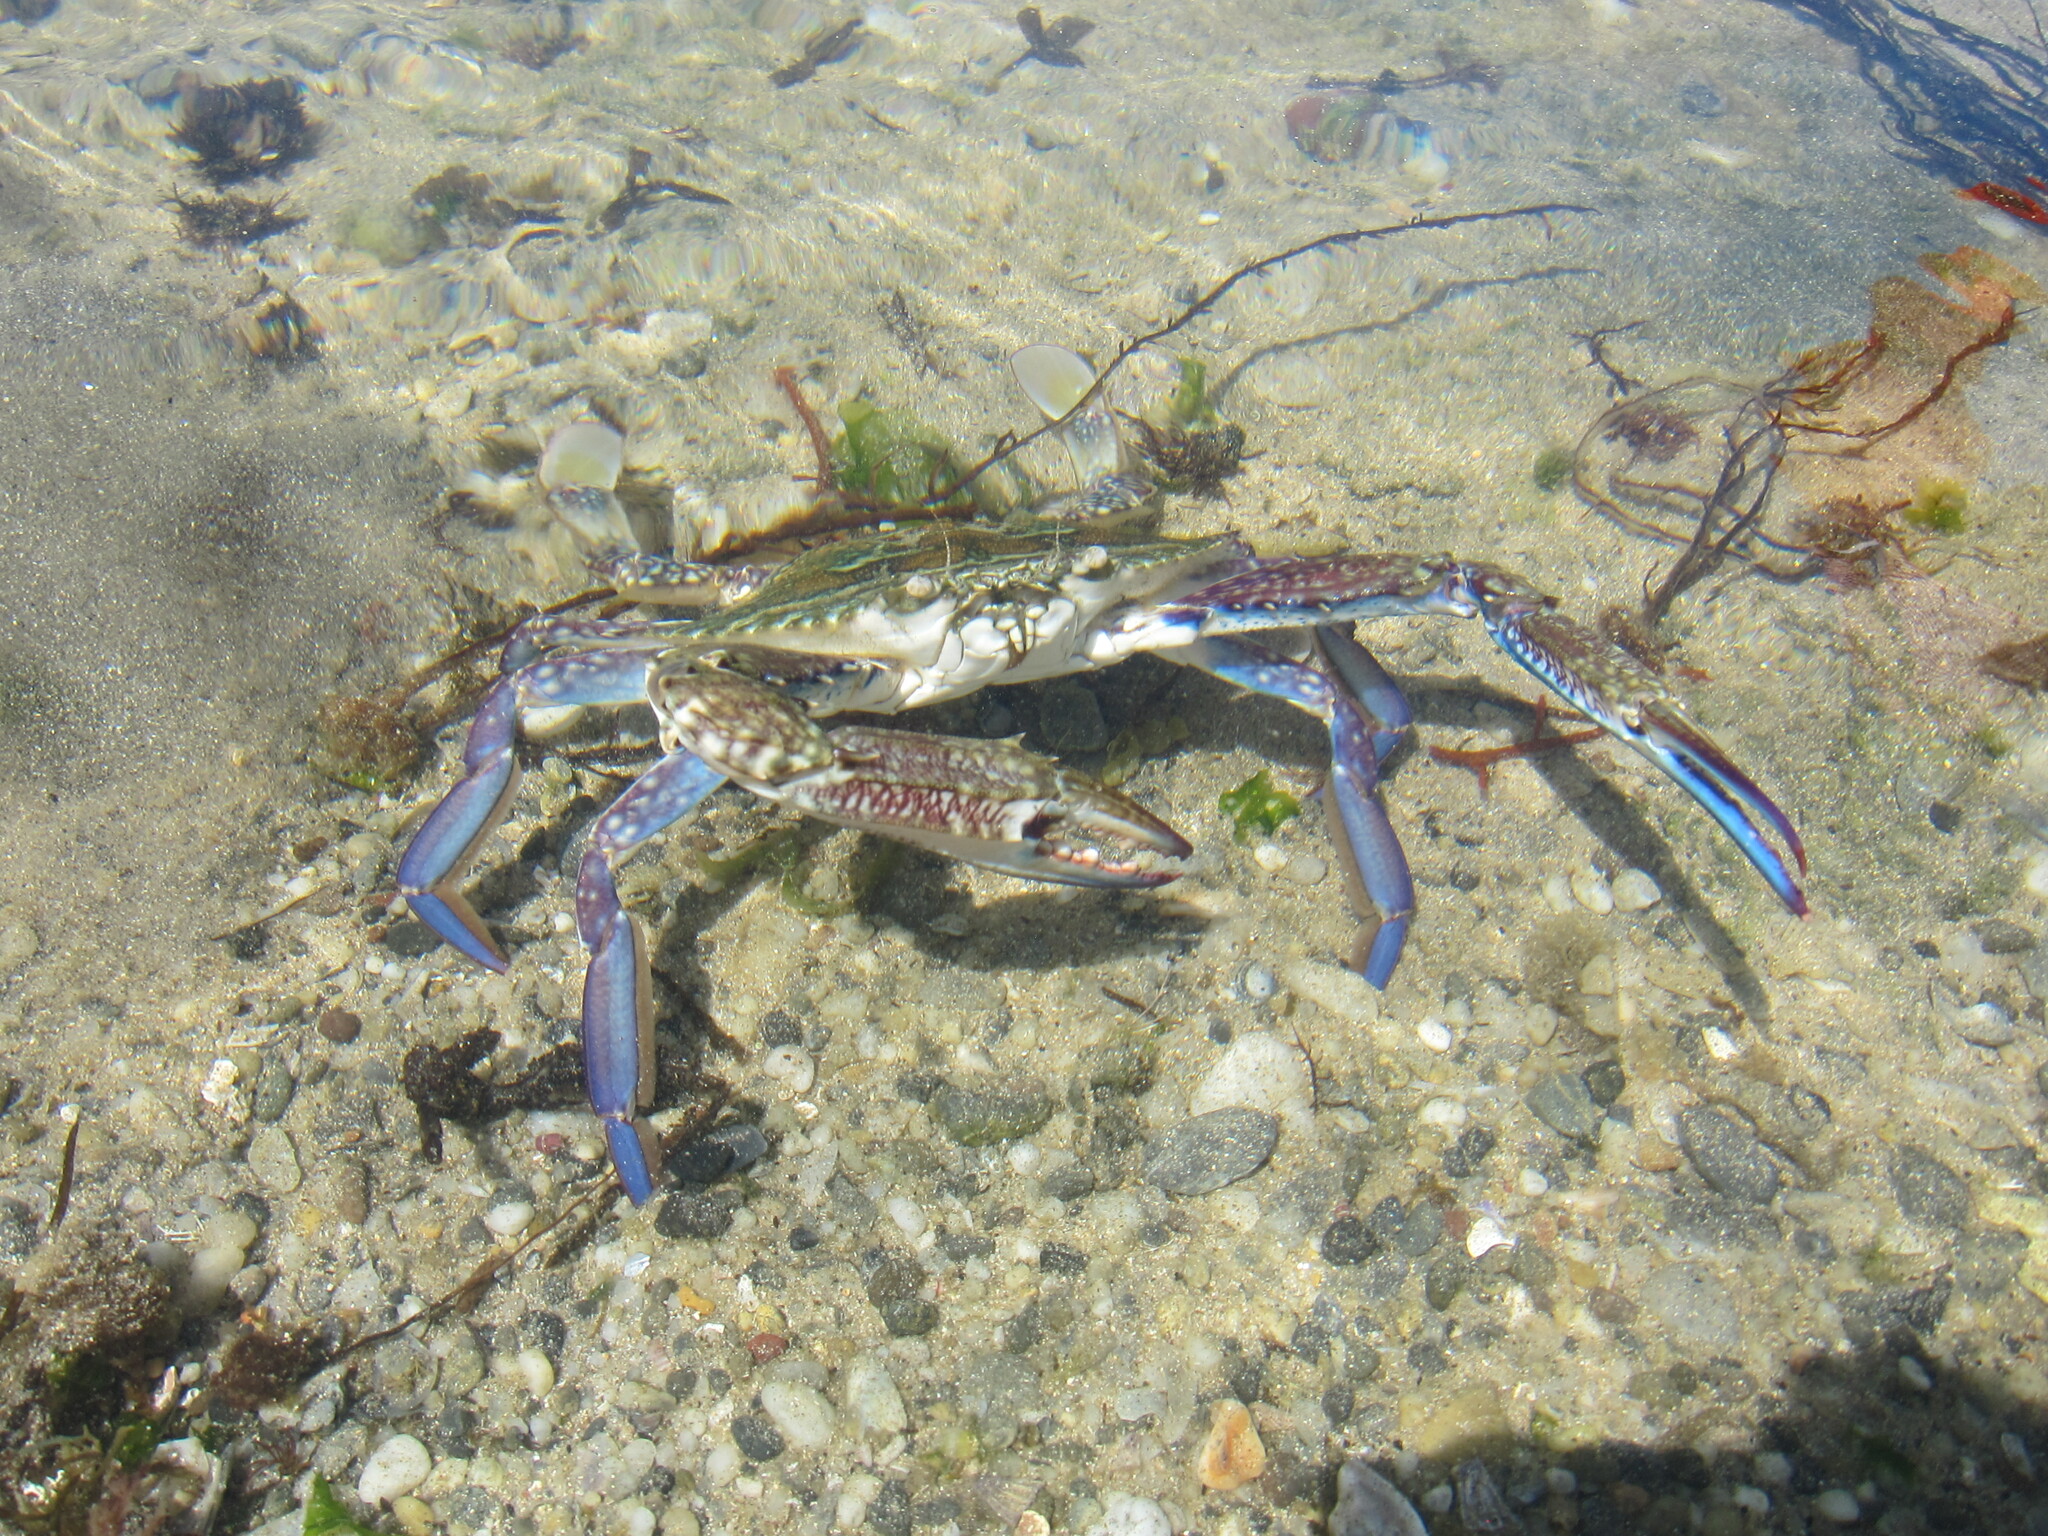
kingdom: Animalia
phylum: Arthropoda
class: Malacostraca
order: Decapoda
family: Portunidae
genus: Portunus
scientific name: Portunus armatus
